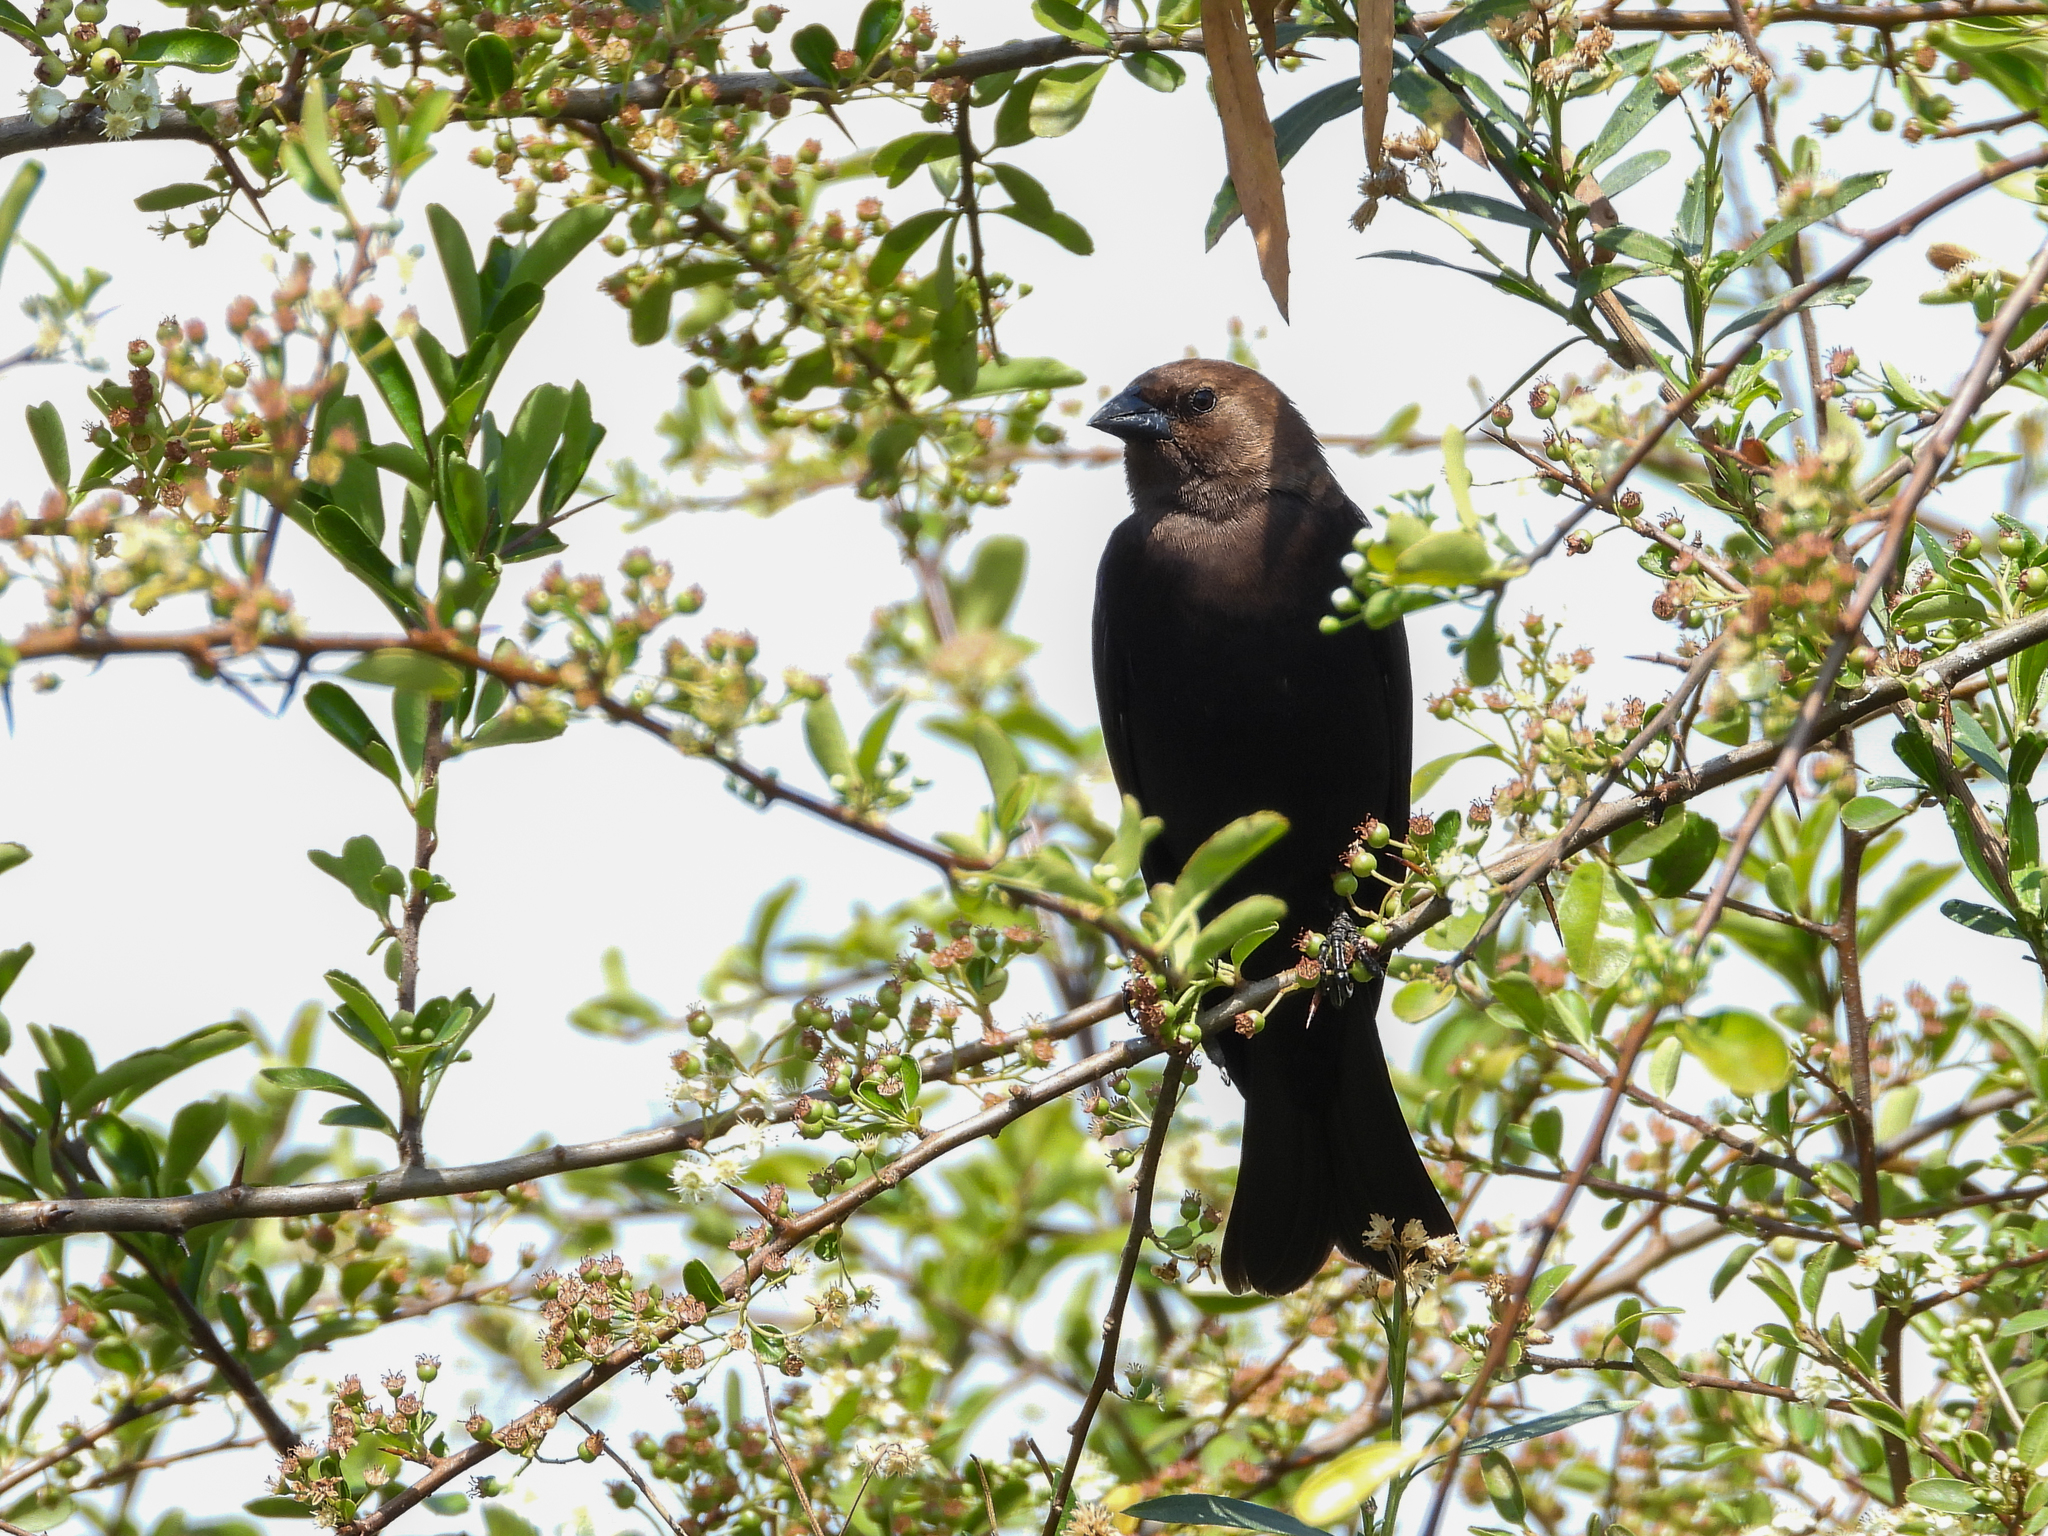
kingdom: Animalia
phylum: Chordata
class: Aves
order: Passeriformes
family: Icteridae
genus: Molothrus
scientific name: Molothrus ater
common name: Brown-headed cowbird
